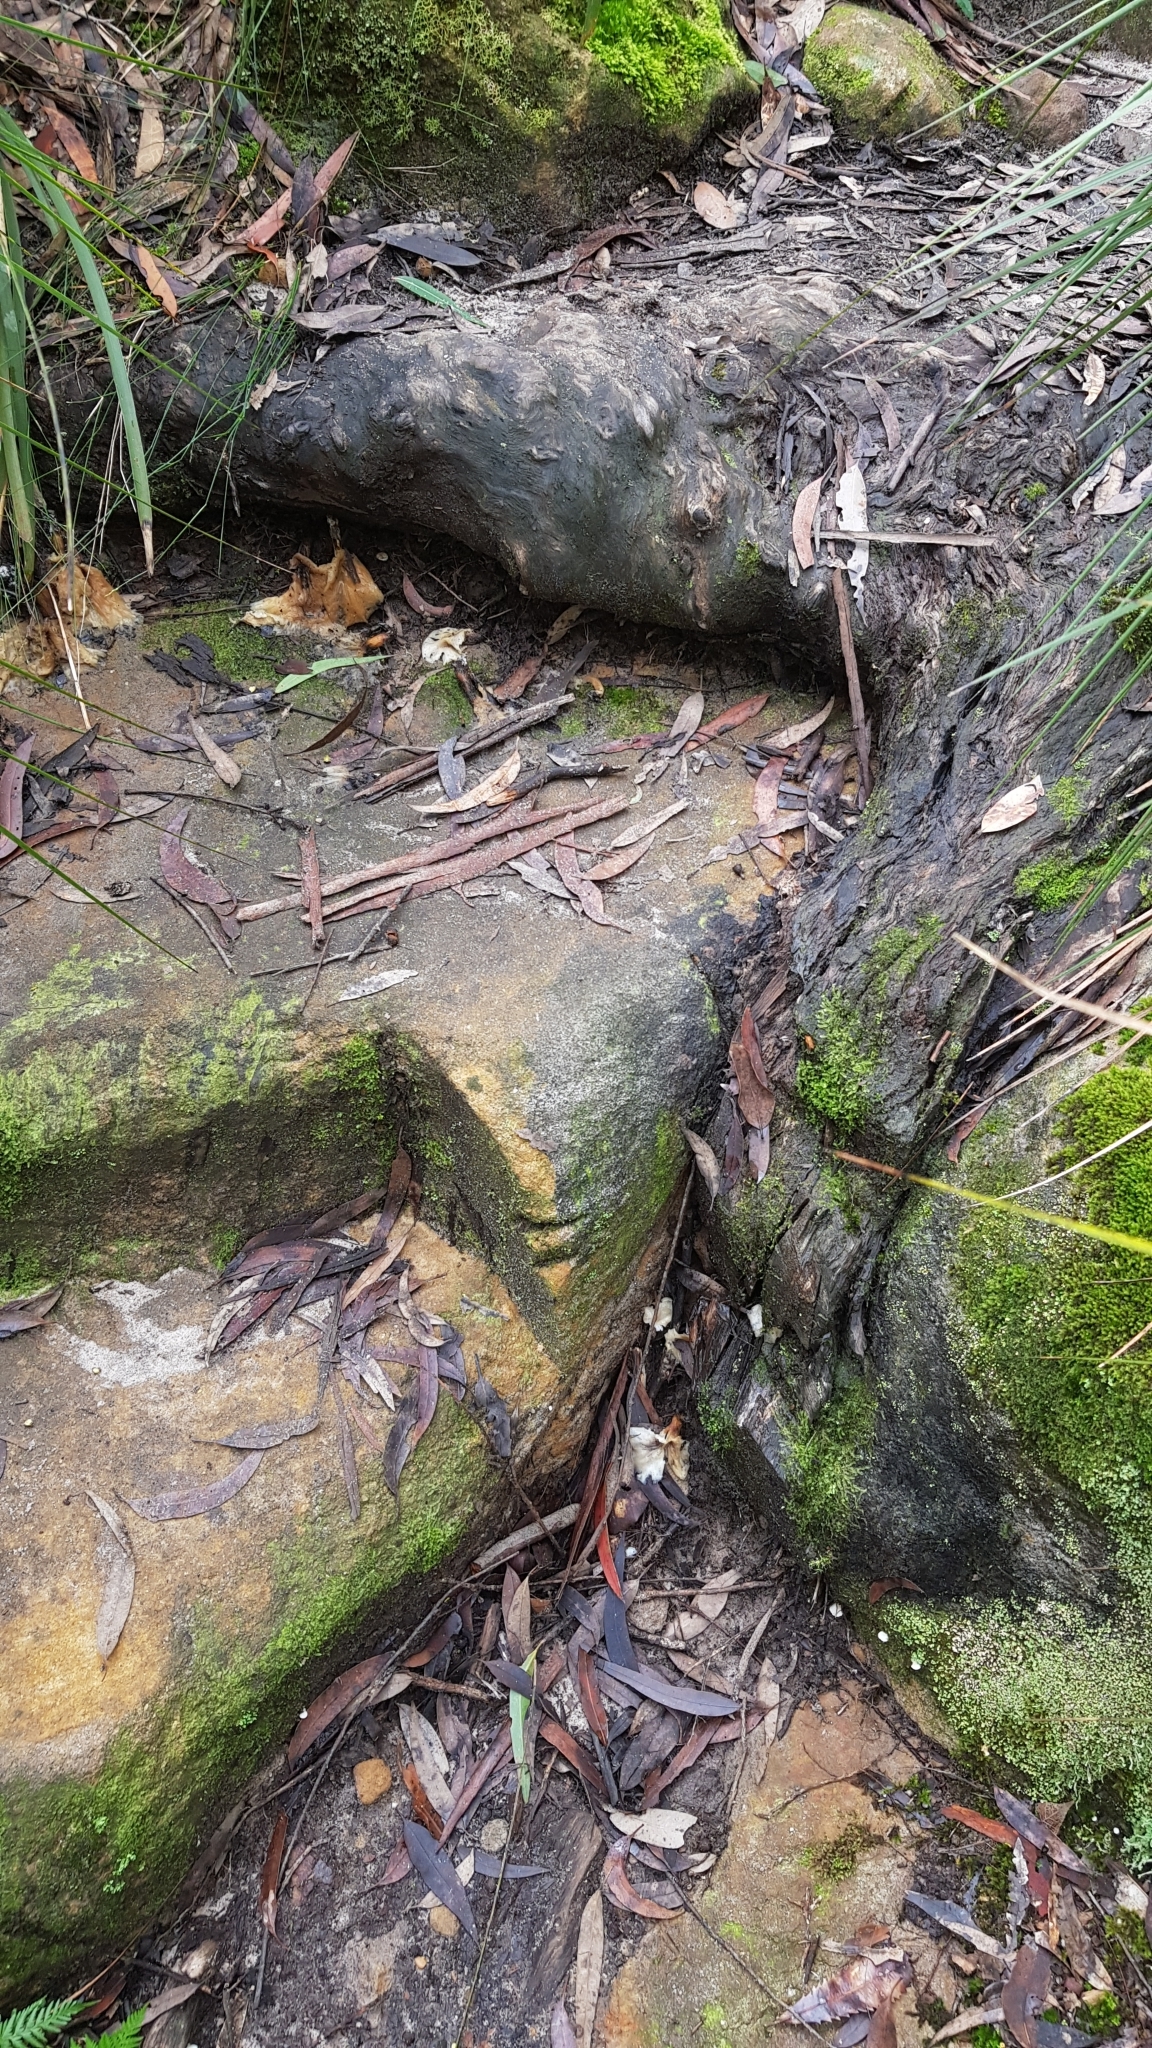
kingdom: Fungi
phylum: Basidiomycota
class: Agaricomycetes
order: Agaricales
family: Omphalotaceae
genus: Omphalotus
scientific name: Omphalotus nidiformis
